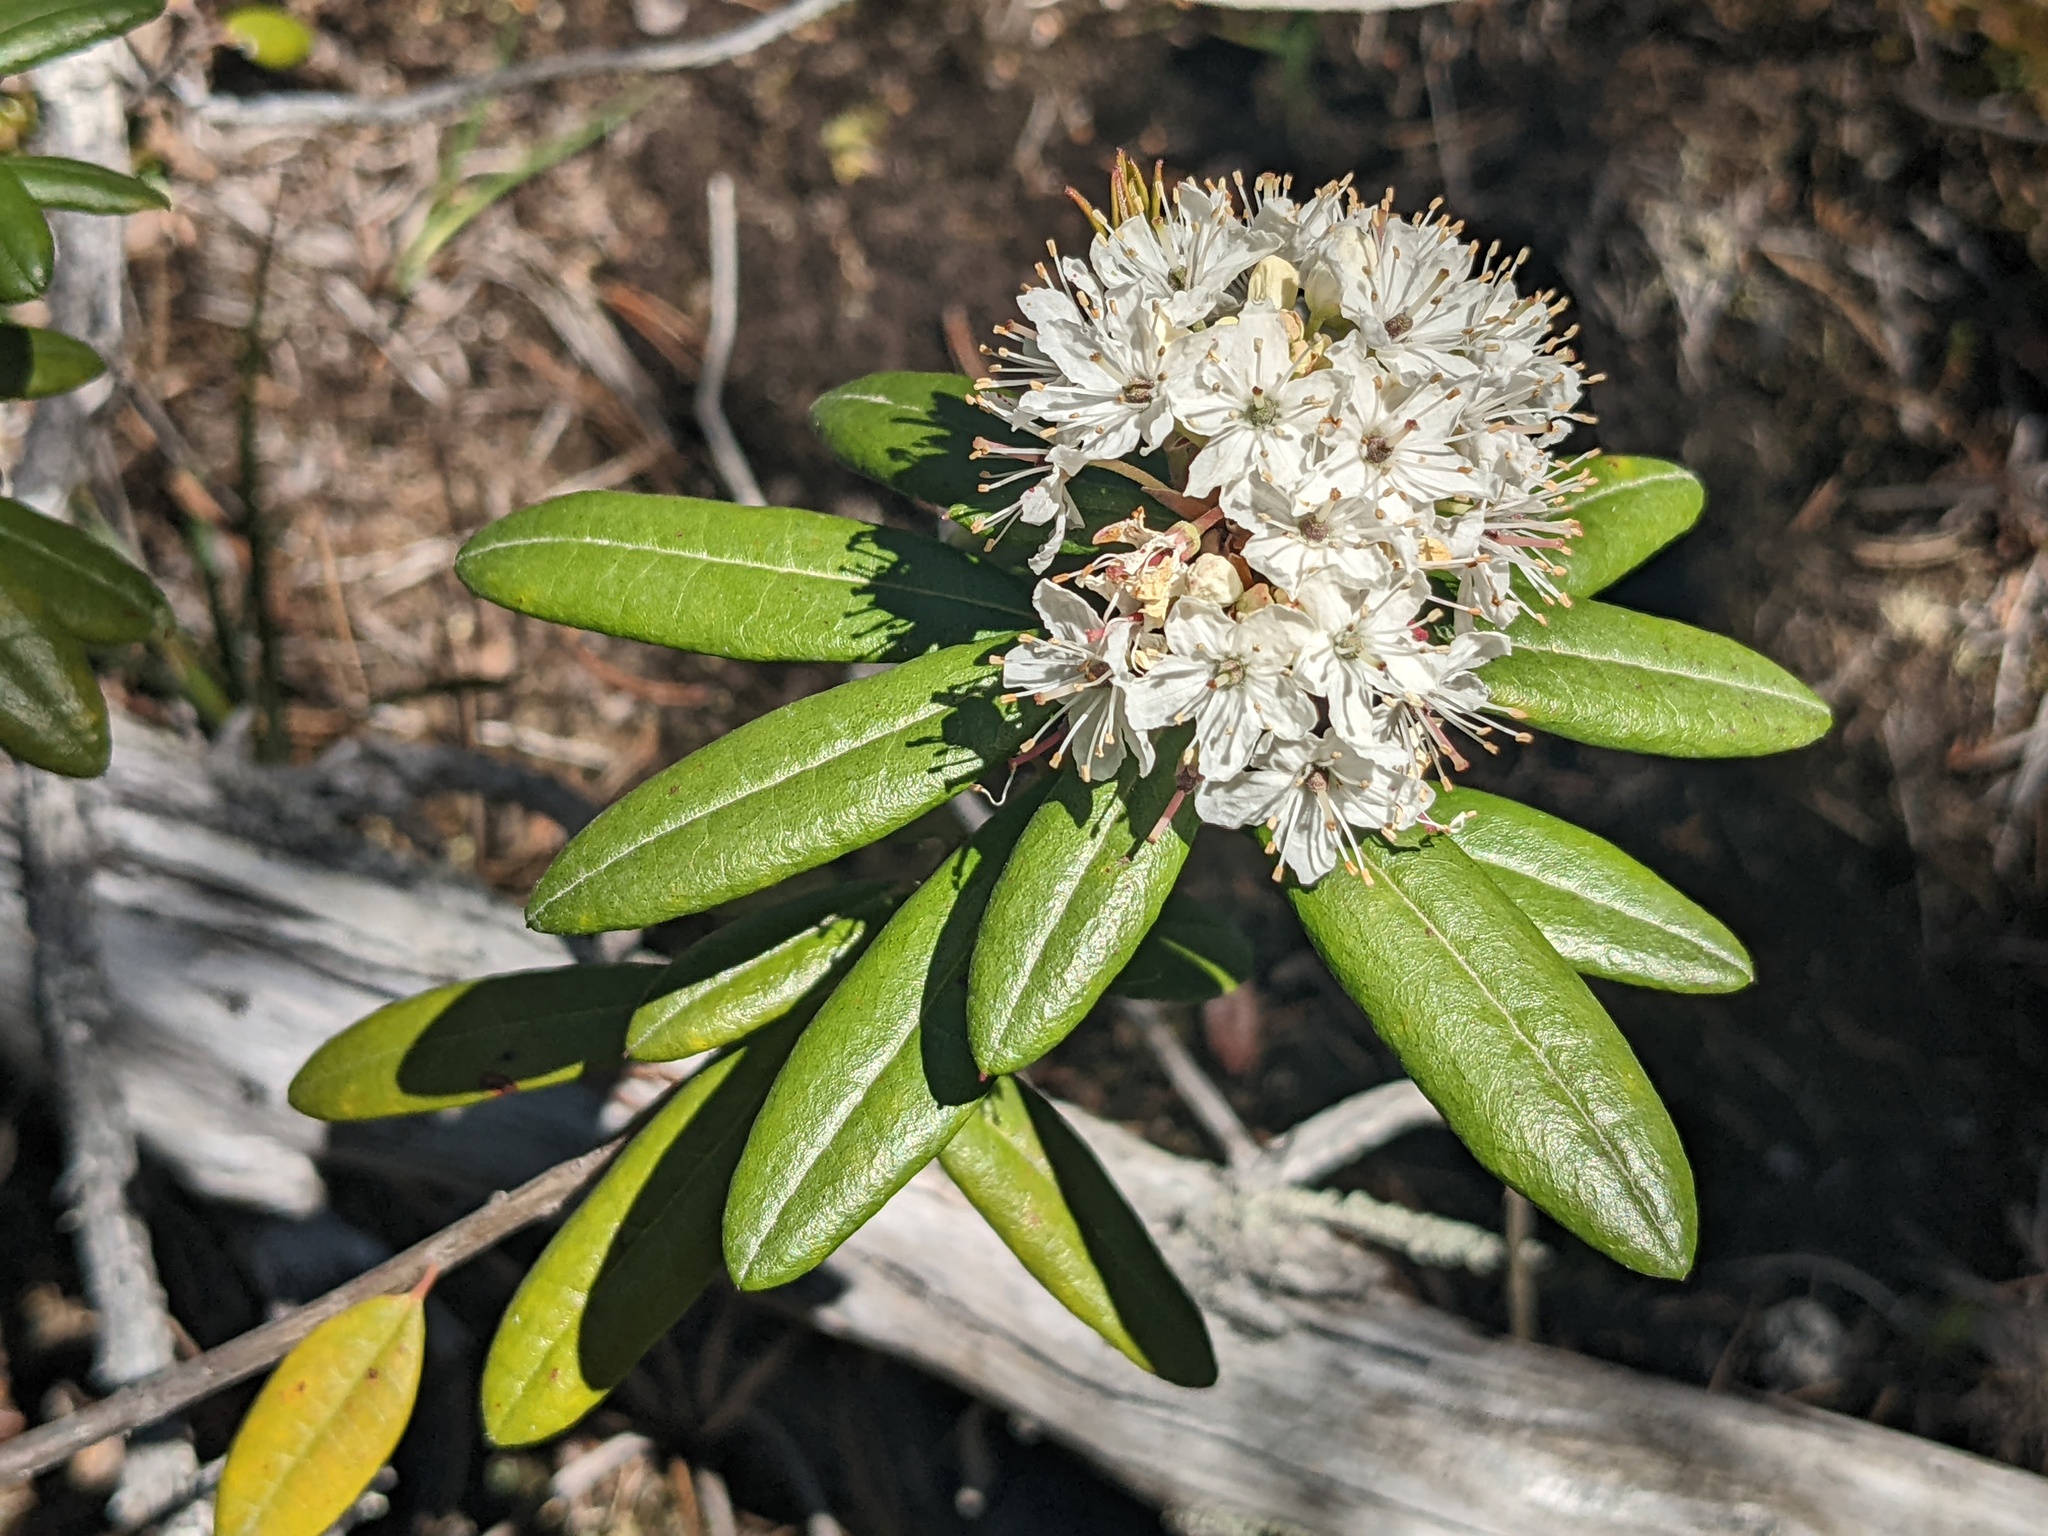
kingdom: Plantae
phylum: Tracheophyta
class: Magnoliopsida
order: Ericales
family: Ericaceae
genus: Rhododendron
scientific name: Rhododendron columbianum
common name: Western labrador tea
